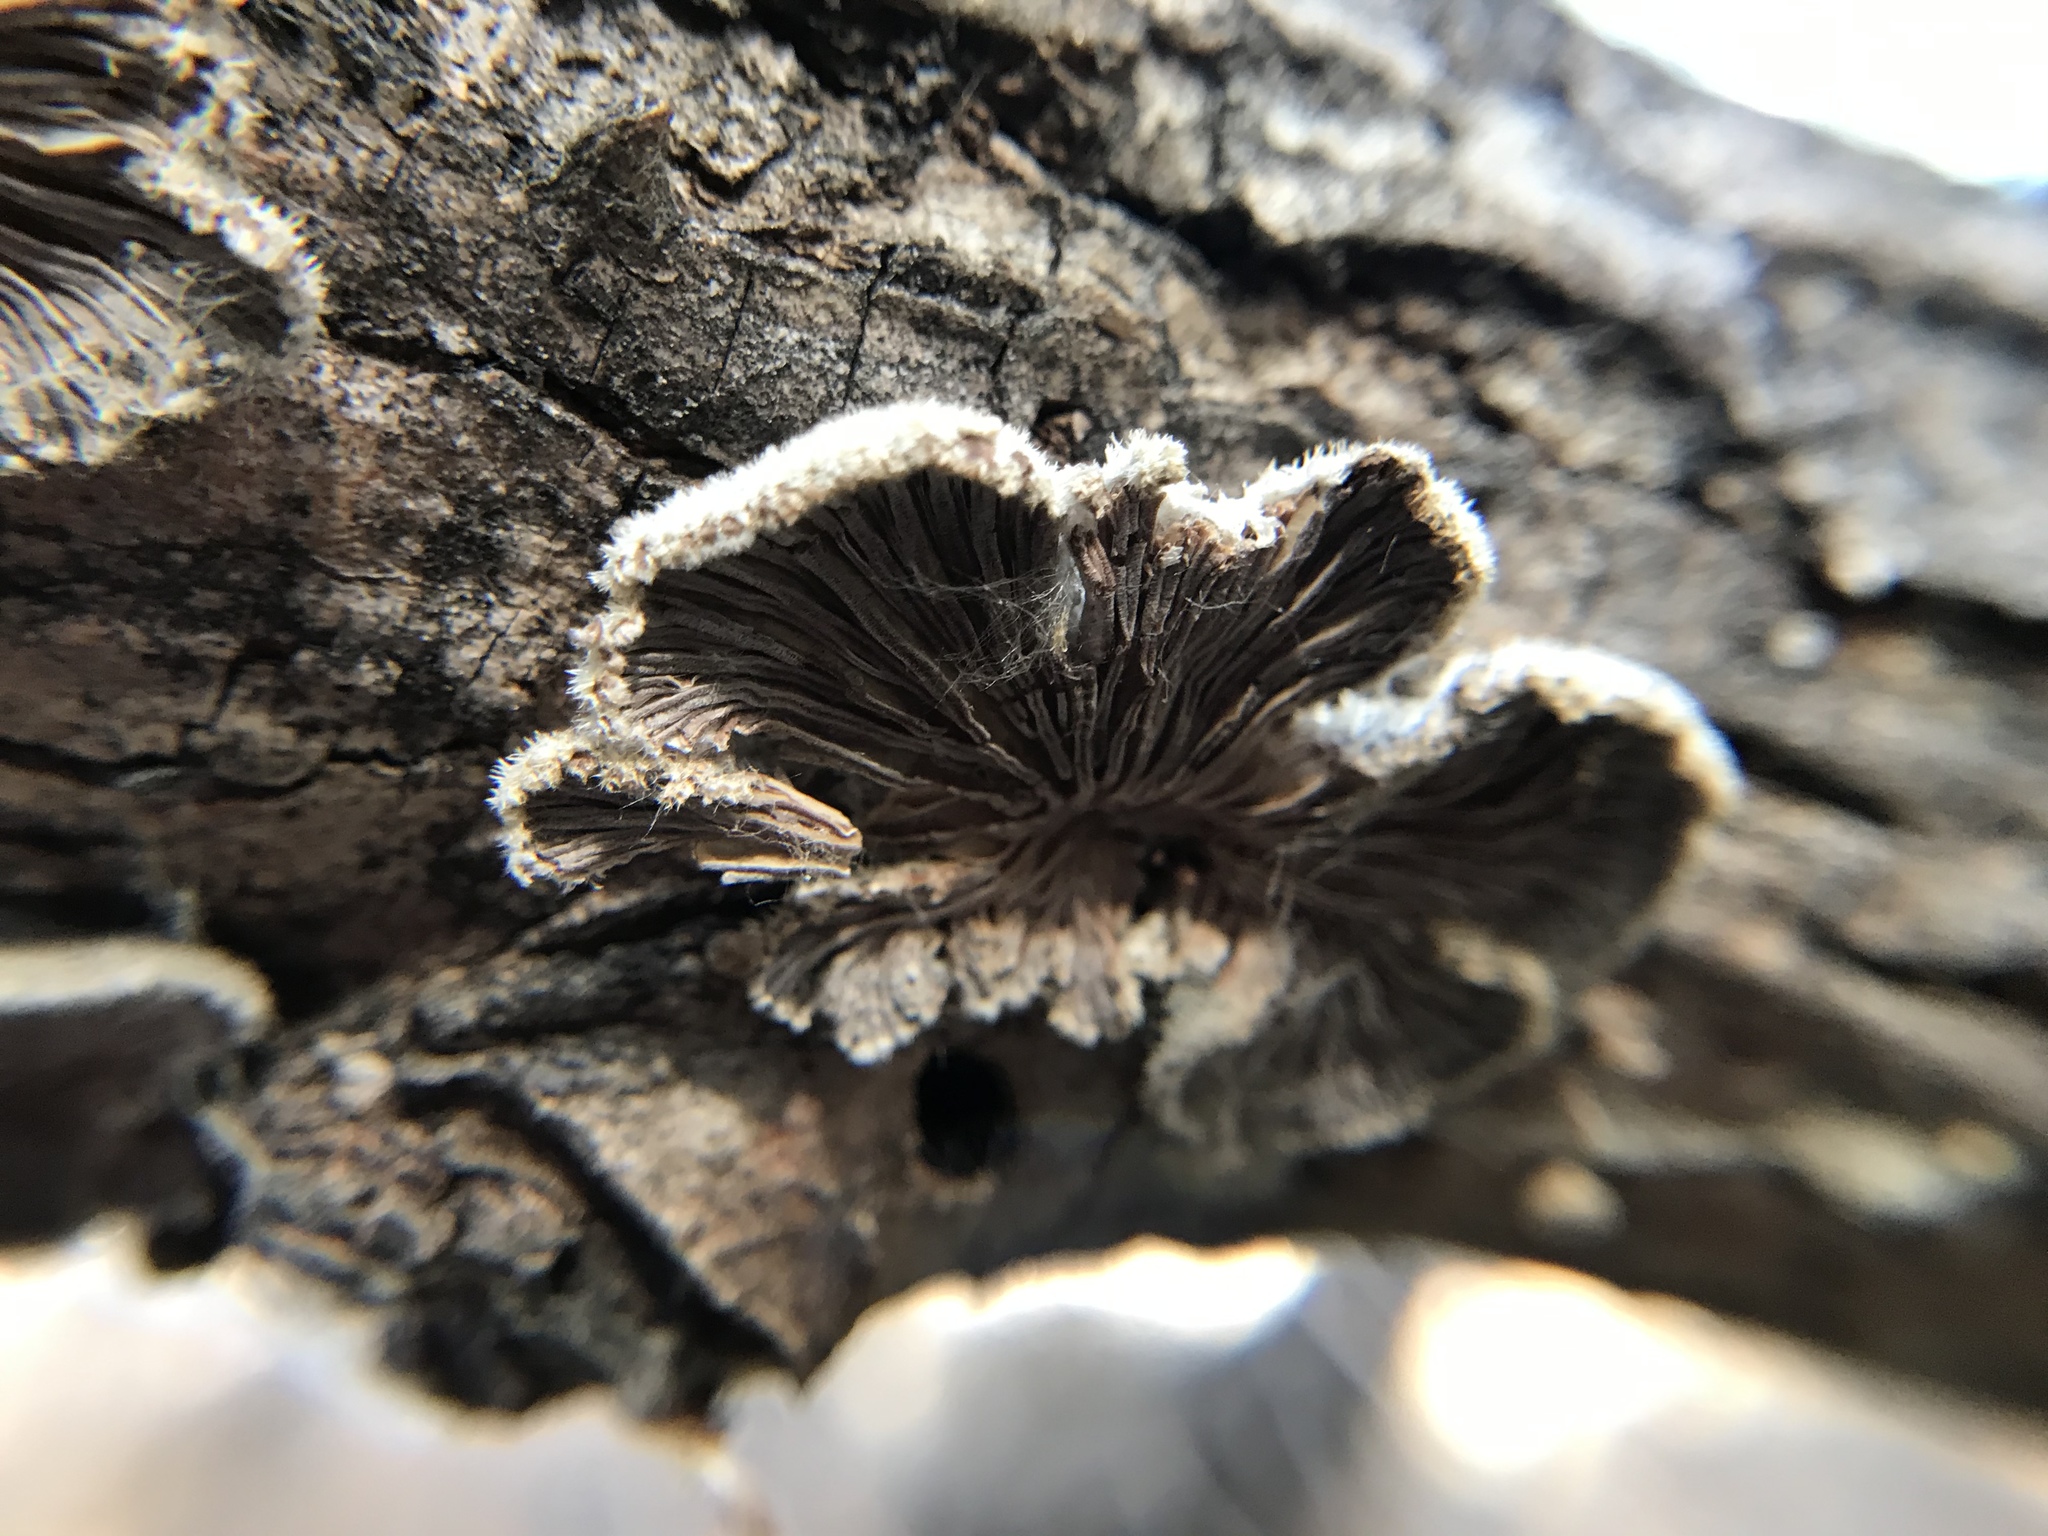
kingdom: Fungi
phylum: Basidiomycota
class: Agaricomycetes
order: Agaricales
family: Schizophyllaceae
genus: Schizophyllum
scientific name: Schizophyllum commune
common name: Common porecrust
